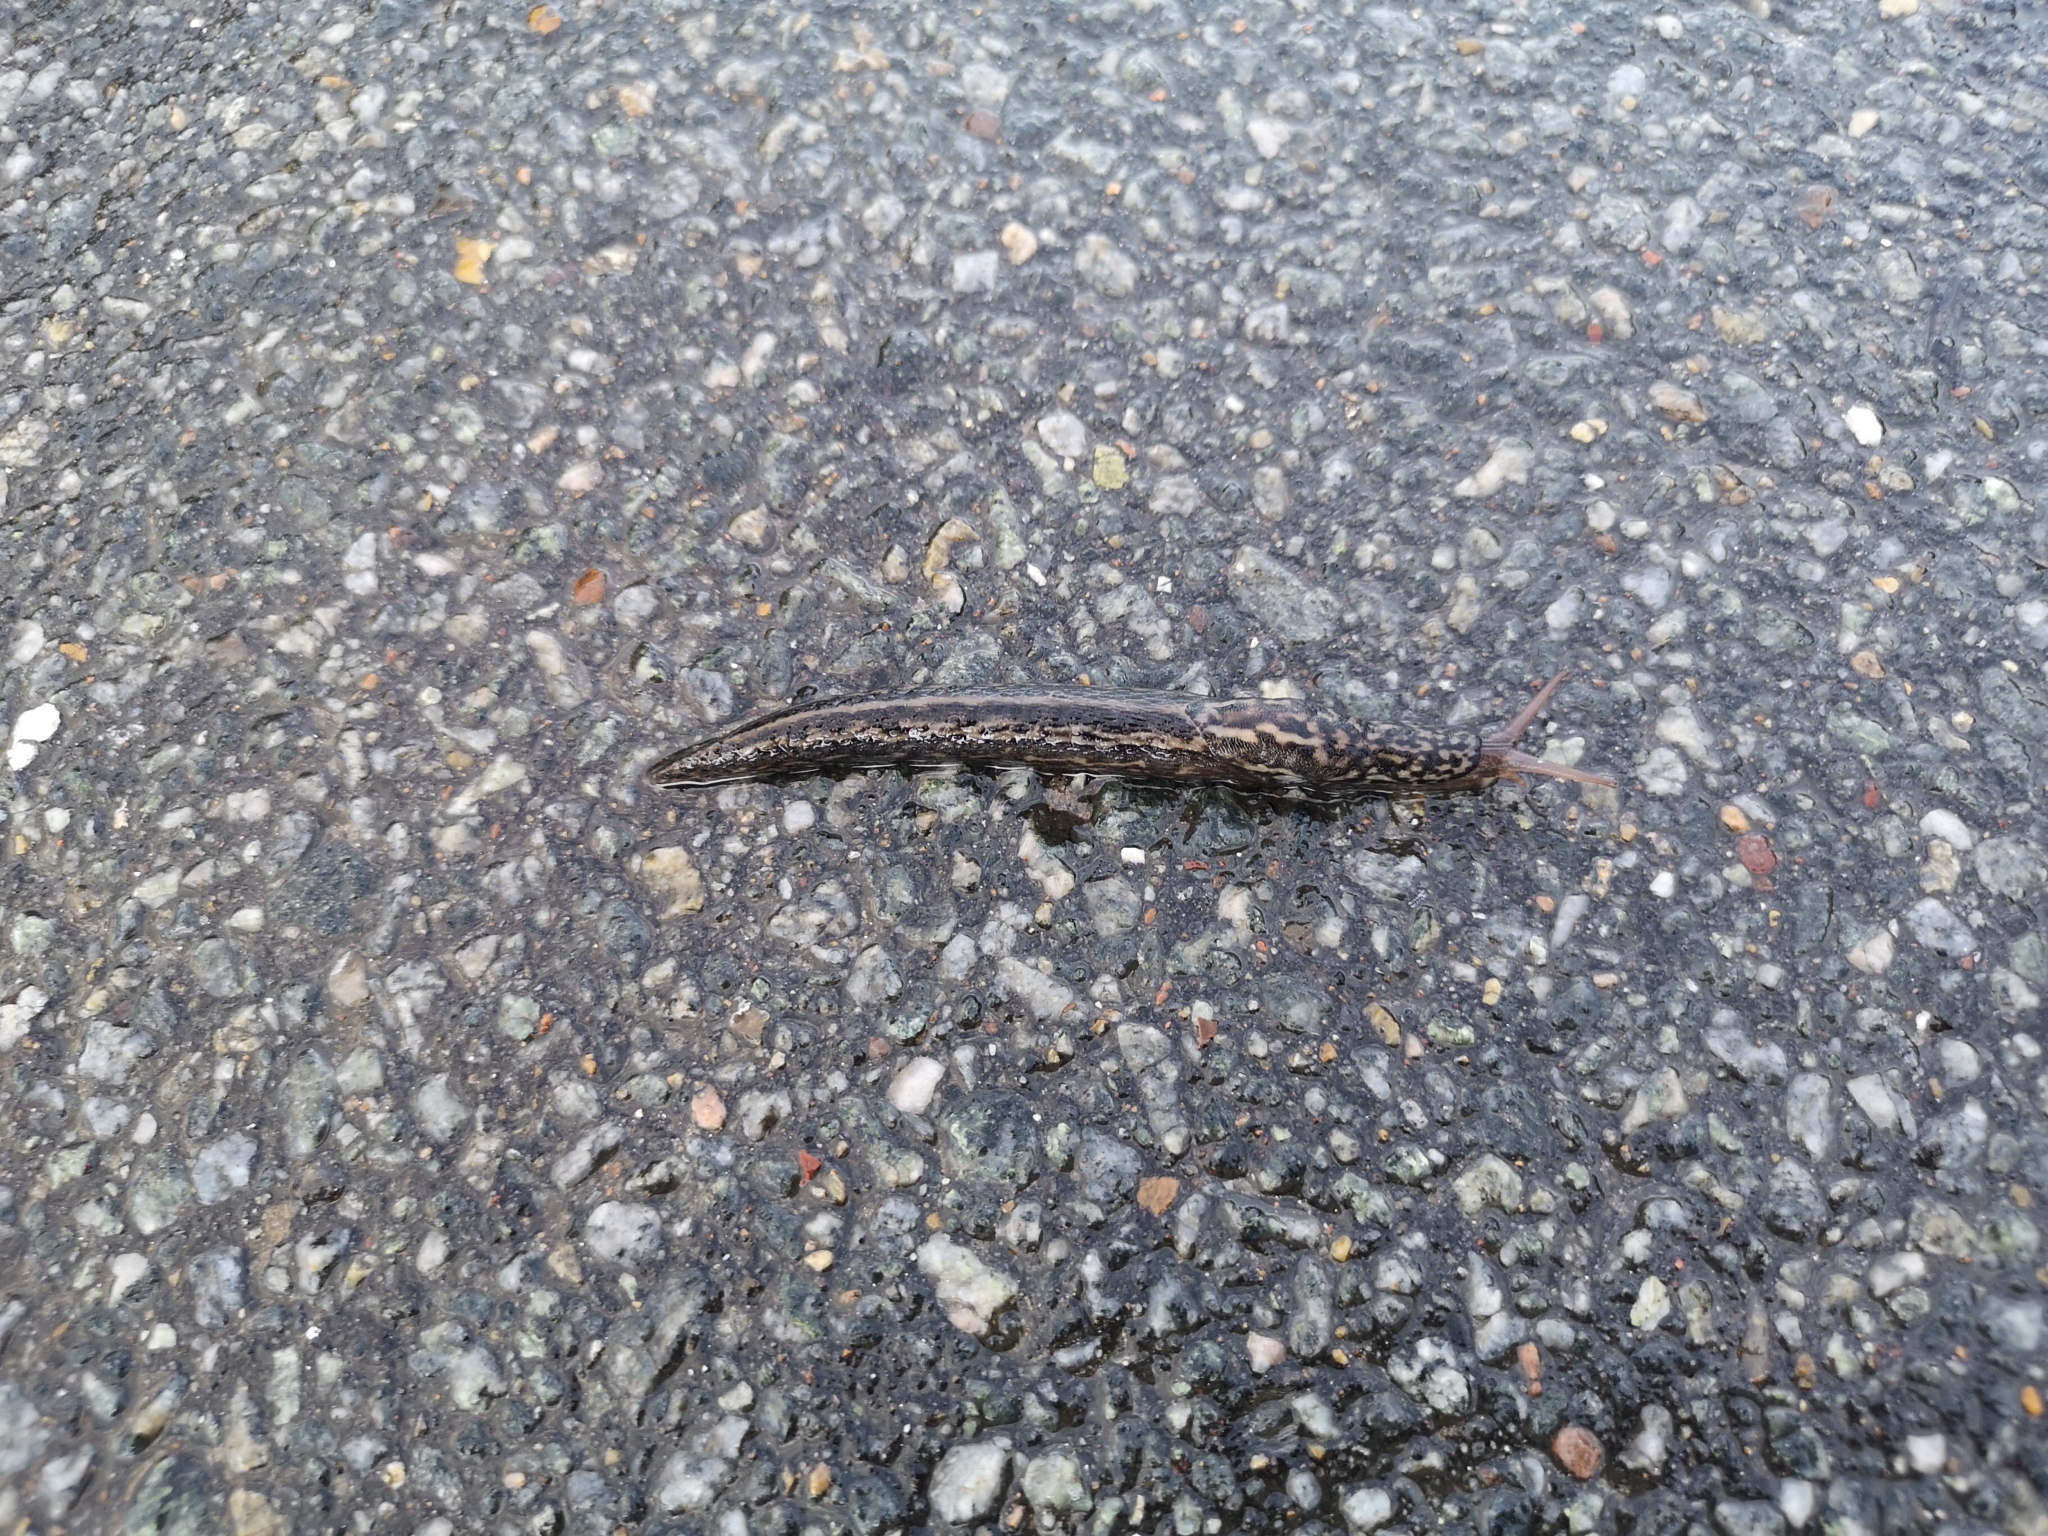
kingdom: Animalia
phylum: Mollusca
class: Gastropoda
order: Stylommatophora
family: Limacidae
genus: Limax
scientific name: Limax maximus
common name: Great grey slug
